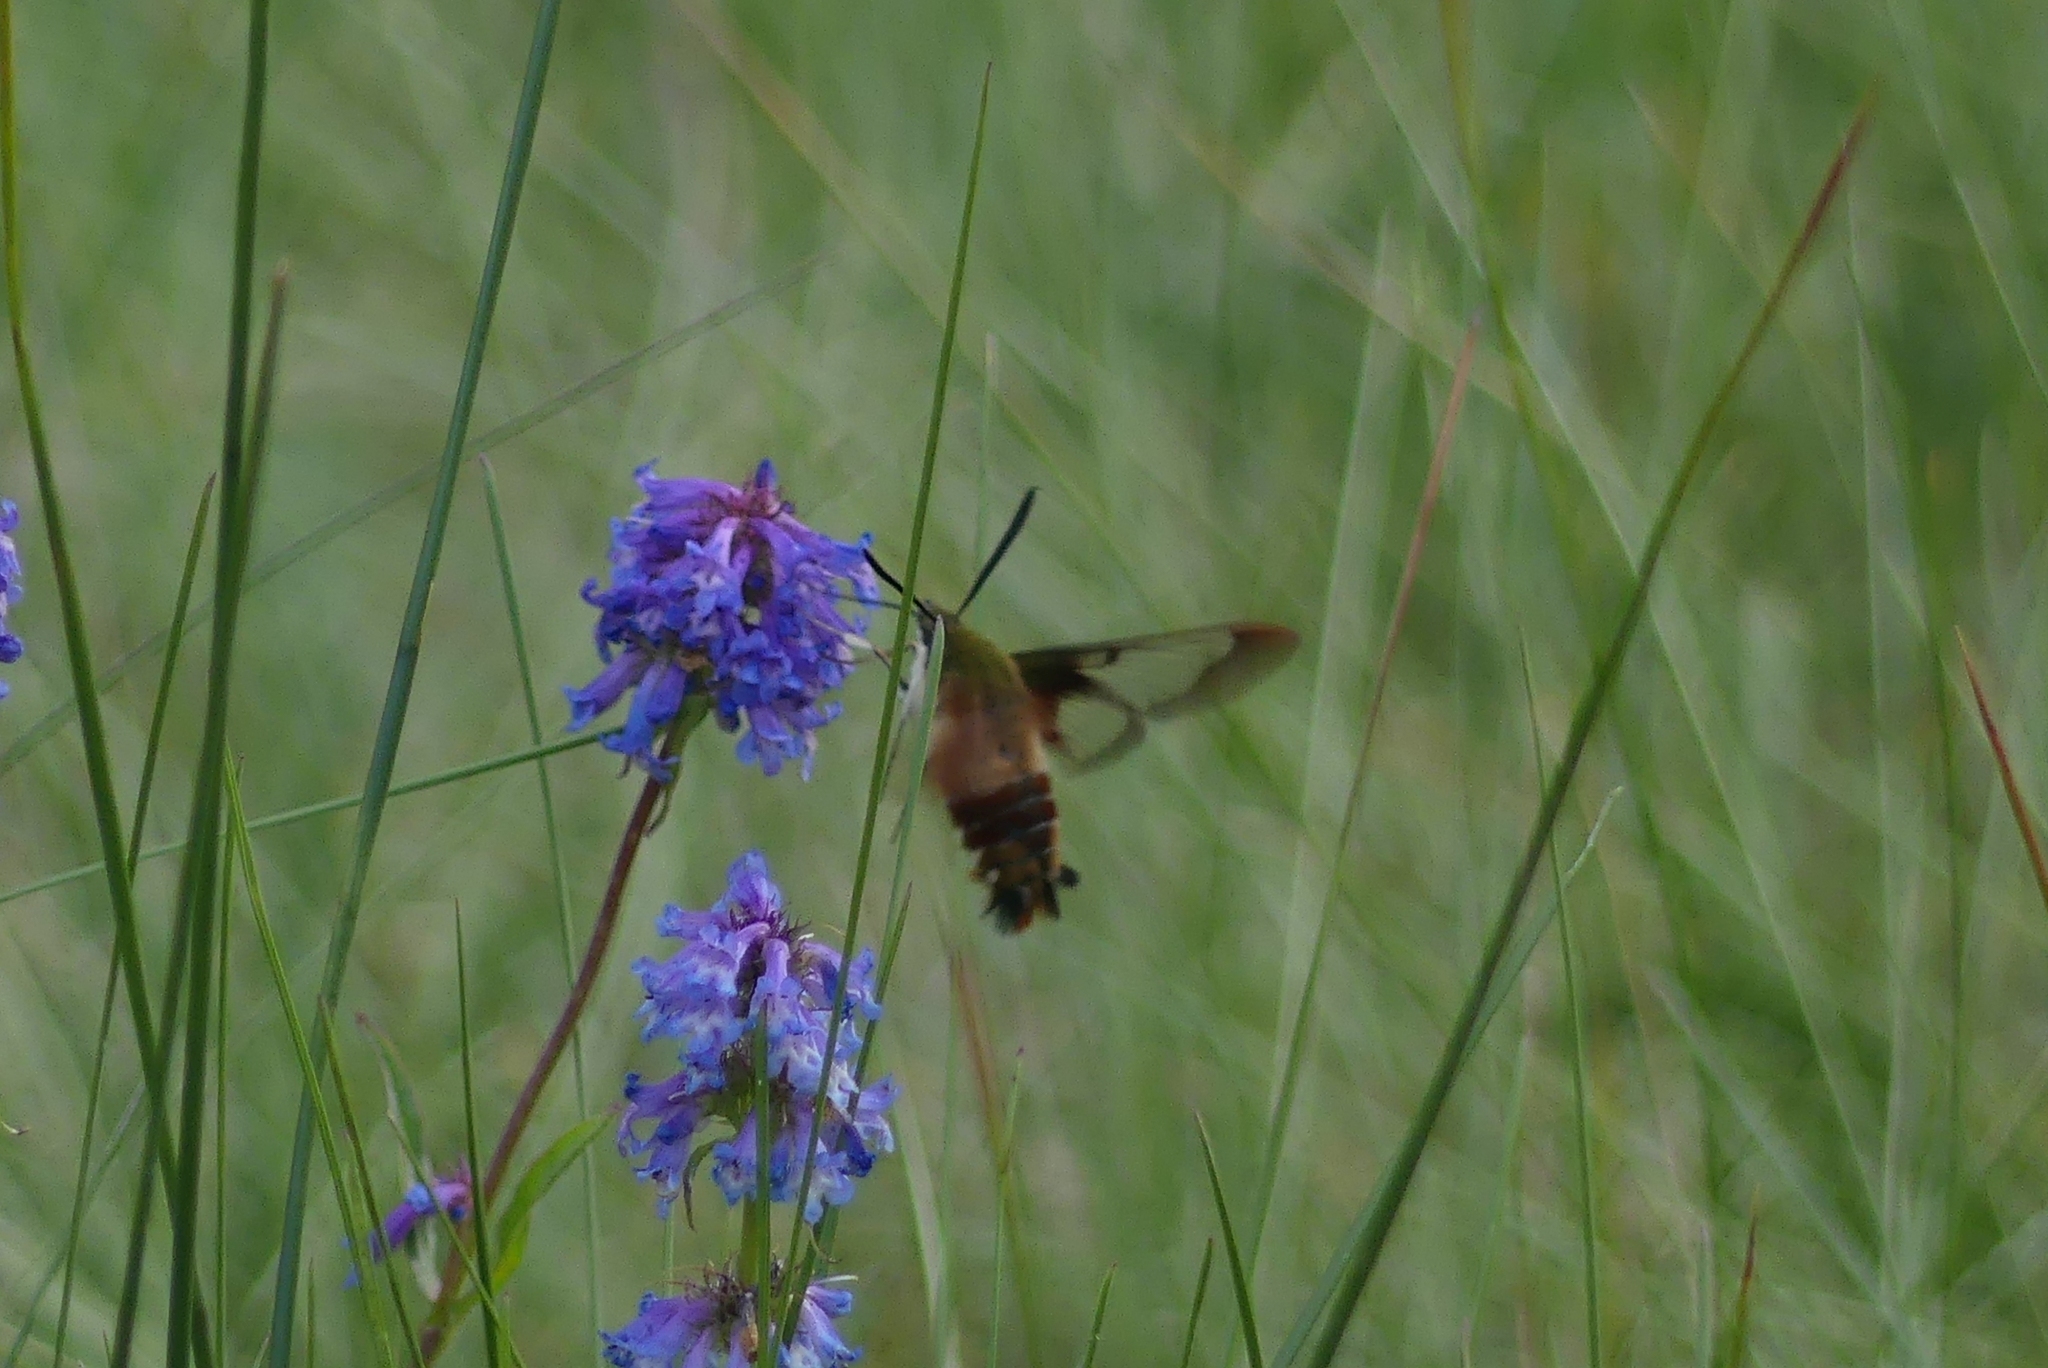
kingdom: Animalia
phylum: Arthropoda
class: Insecta
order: Lepidoptera
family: Sphingidae
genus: Hemaris
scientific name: Hemaris thysbe
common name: Common clear-wing
